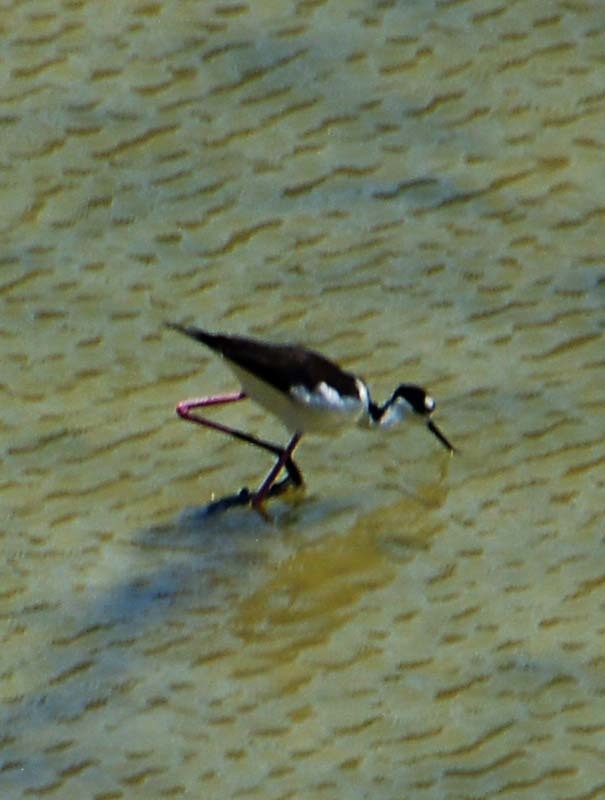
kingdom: Animalia
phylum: Chordata
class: Aves
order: Charadriiformes
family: Recurvirostridae
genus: Himantopus
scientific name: Himantopus mexicanus
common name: Black-necked stilt
